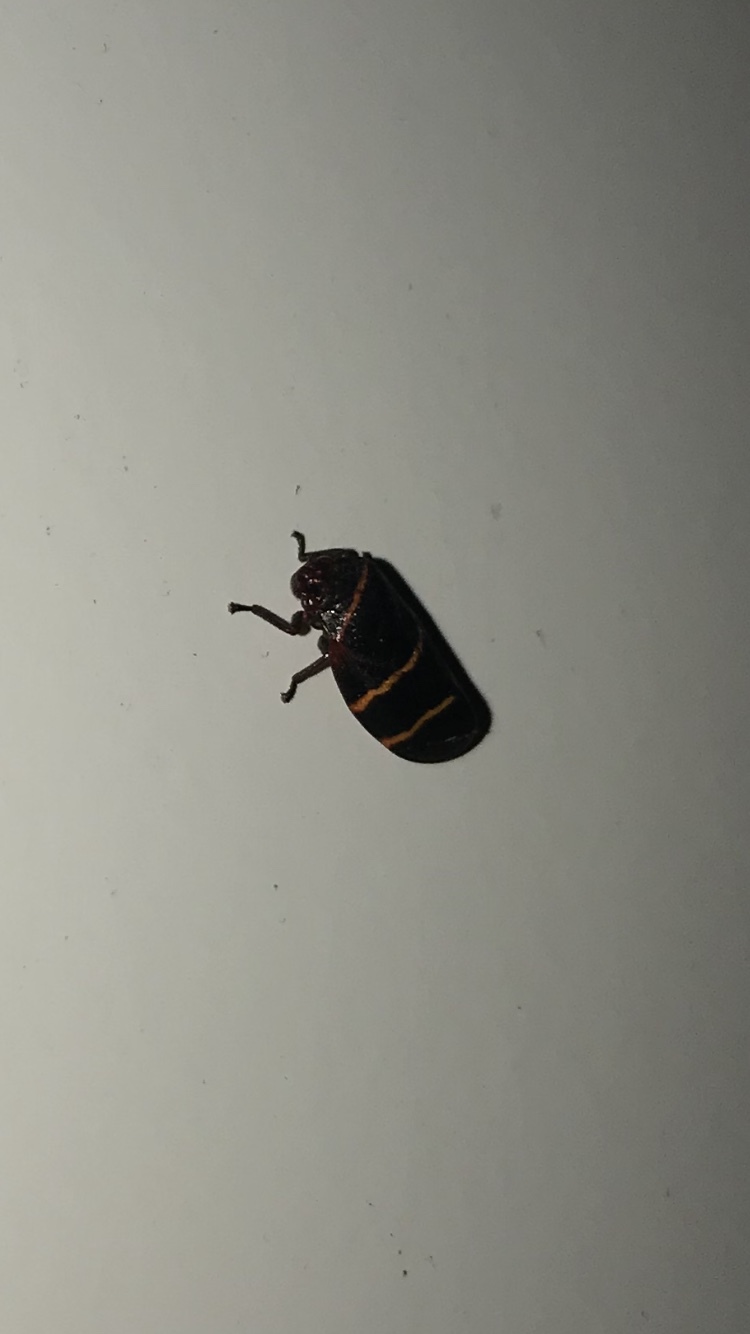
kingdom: Animalia
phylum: Arthropoda
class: Insecta
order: Hemiptera
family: Cercopidae
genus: Prosapia
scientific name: Prosapia bicincta
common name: Twolined spittlebug
